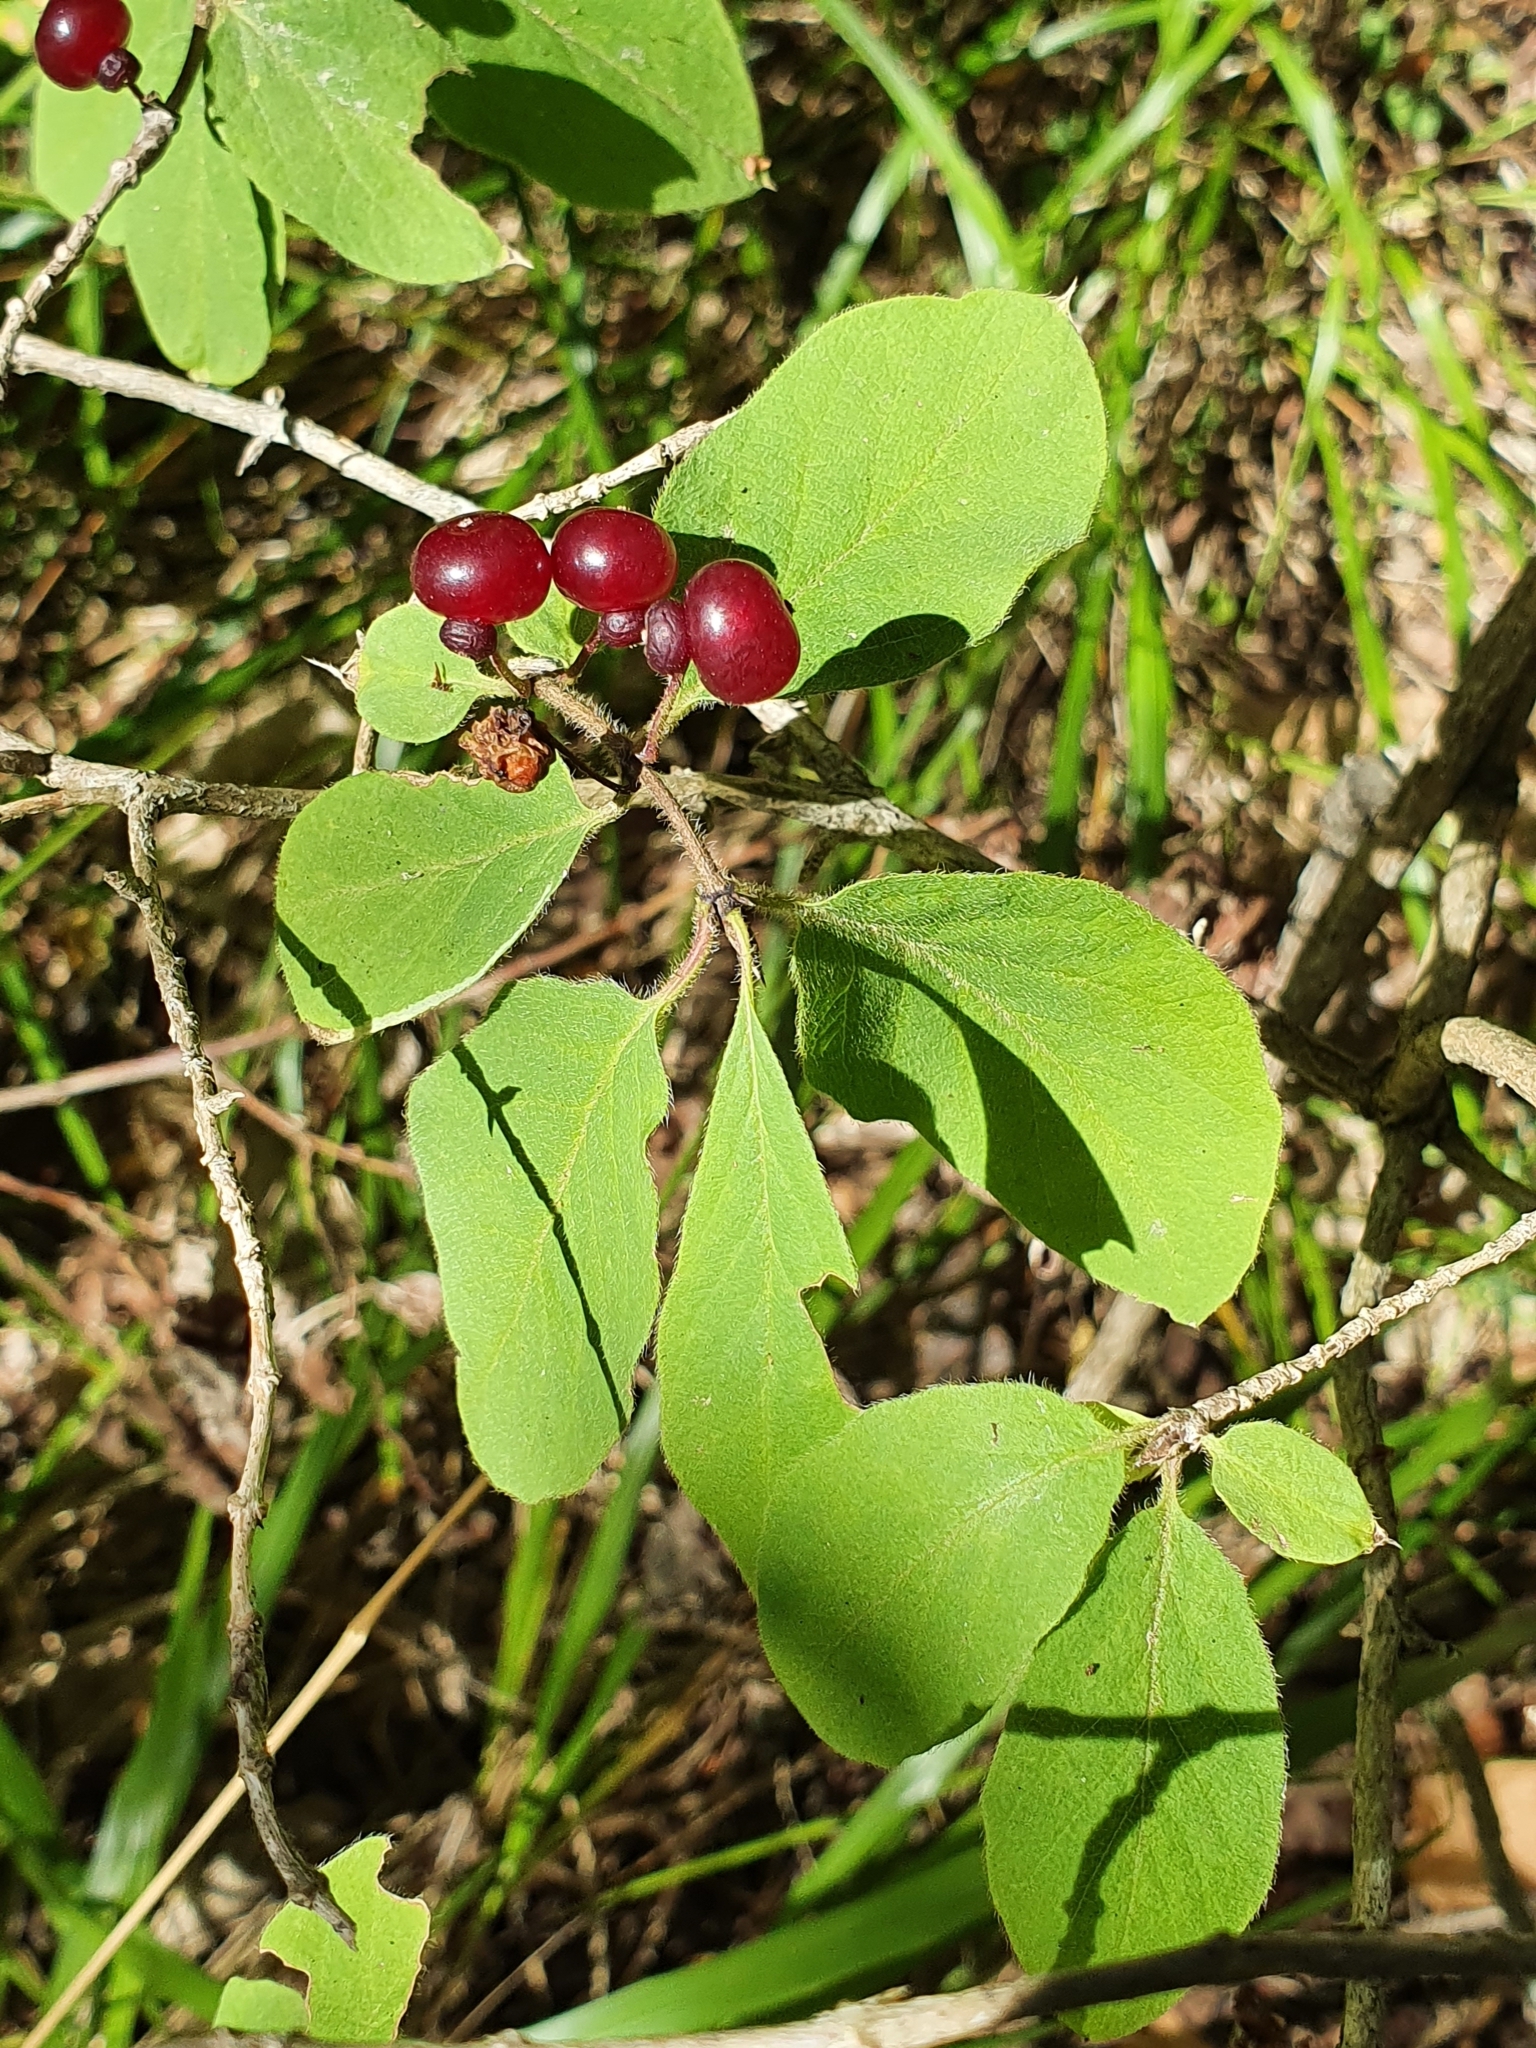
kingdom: Plantae
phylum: Tracheophyta
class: Magnoliopsida
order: Dipsacales
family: Caprifoliaceae
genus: Lonicera
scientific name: Lonicera xylosteum
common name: Fly honeysuckle
